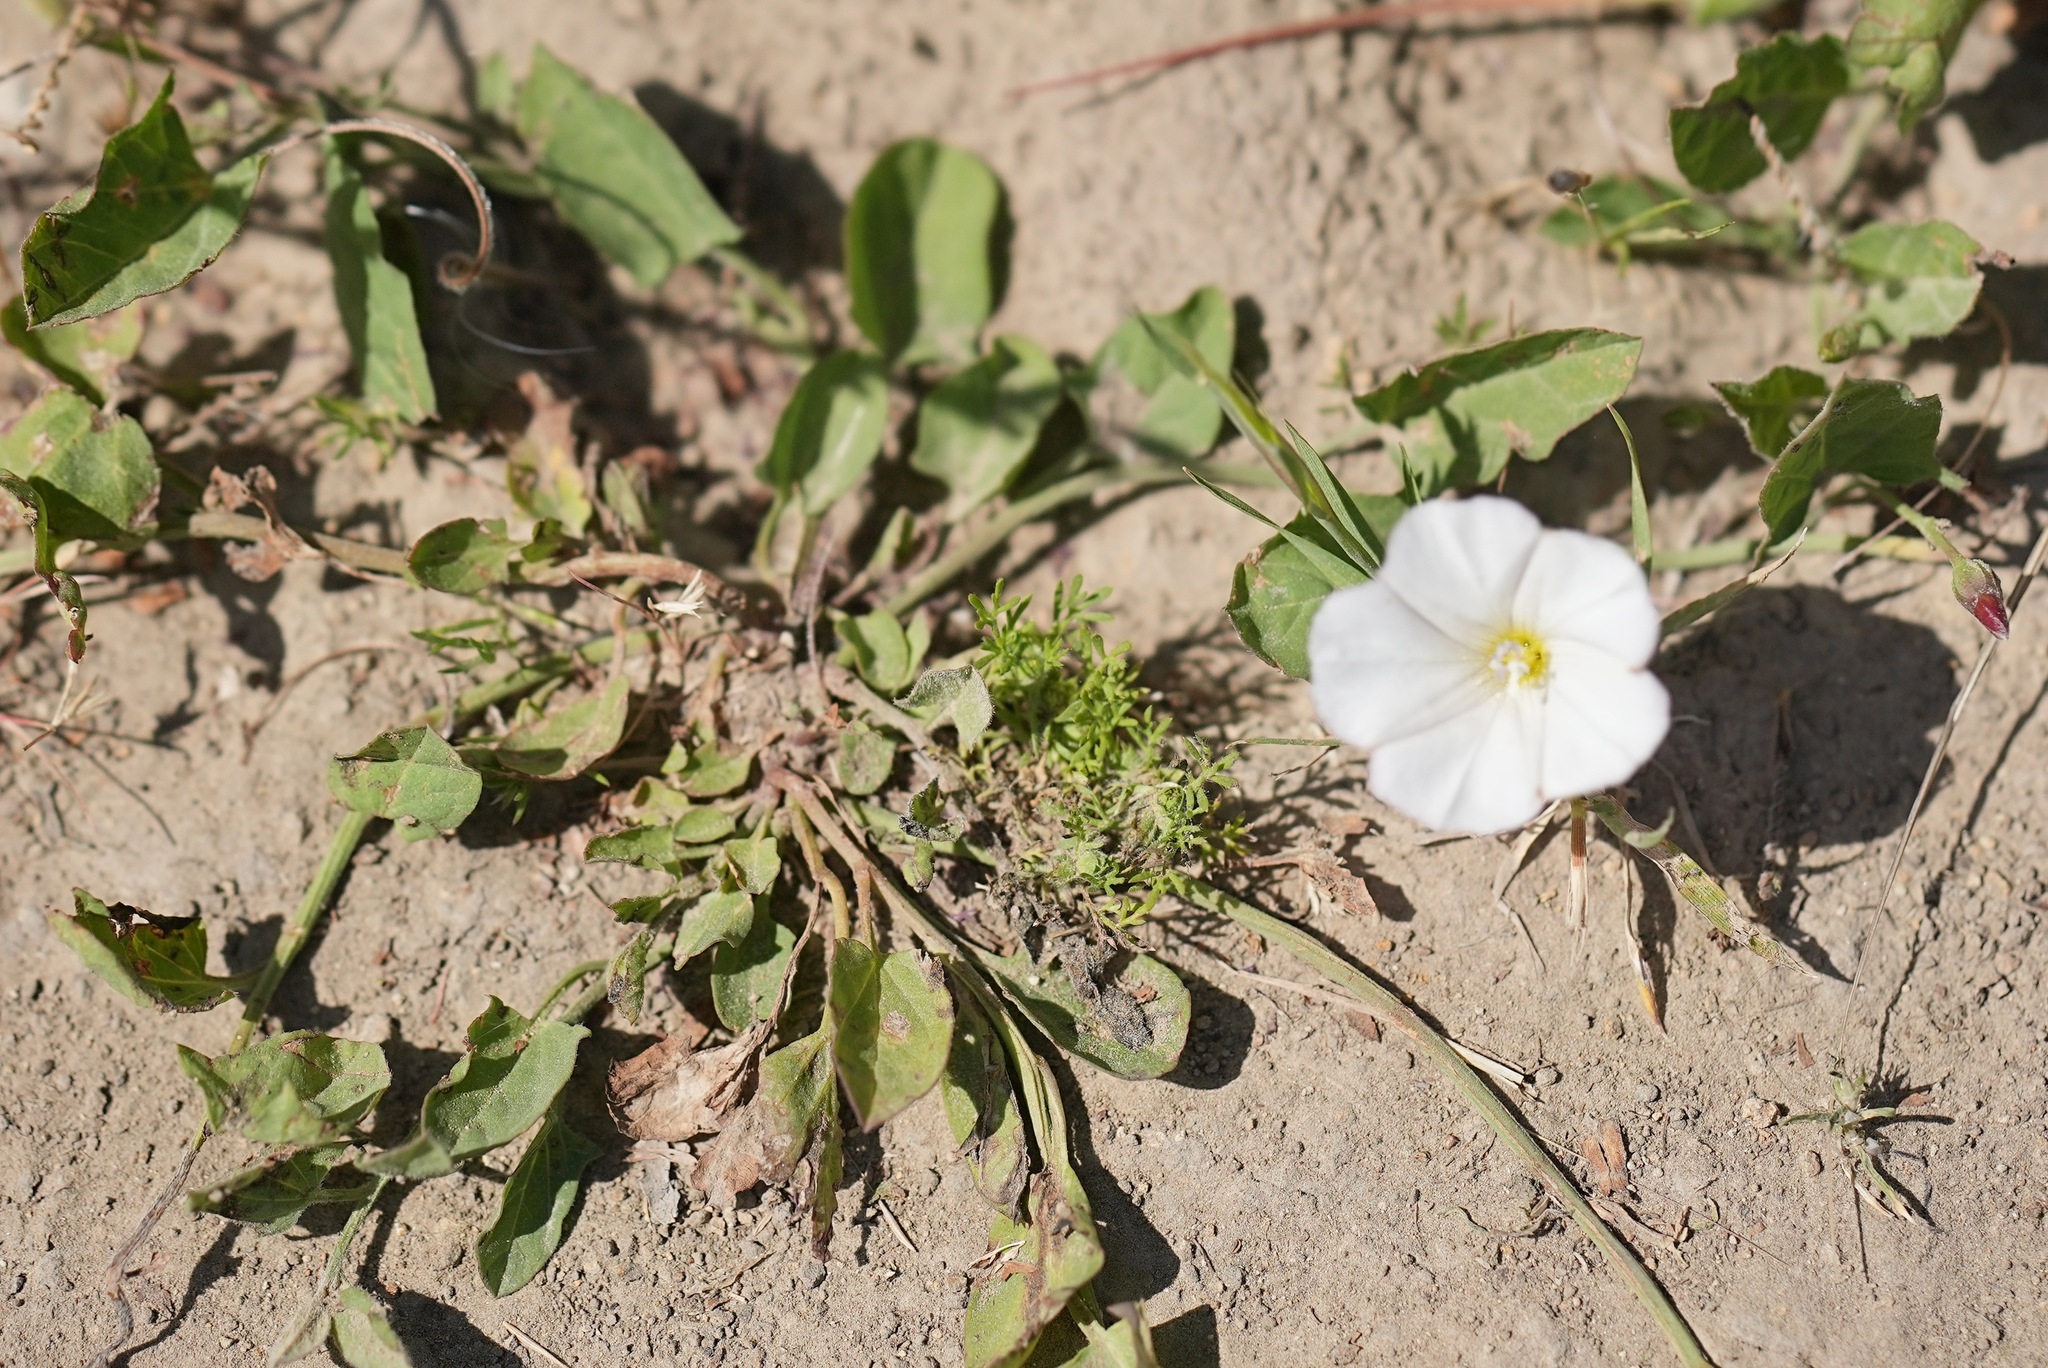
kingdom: Plantae
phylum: Tracheophyta
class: Magnoliopsida
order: Solanales
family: Convolvulaceae
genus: Convolvulus
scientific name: Convolvulus arvensis
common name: Field bindweed
